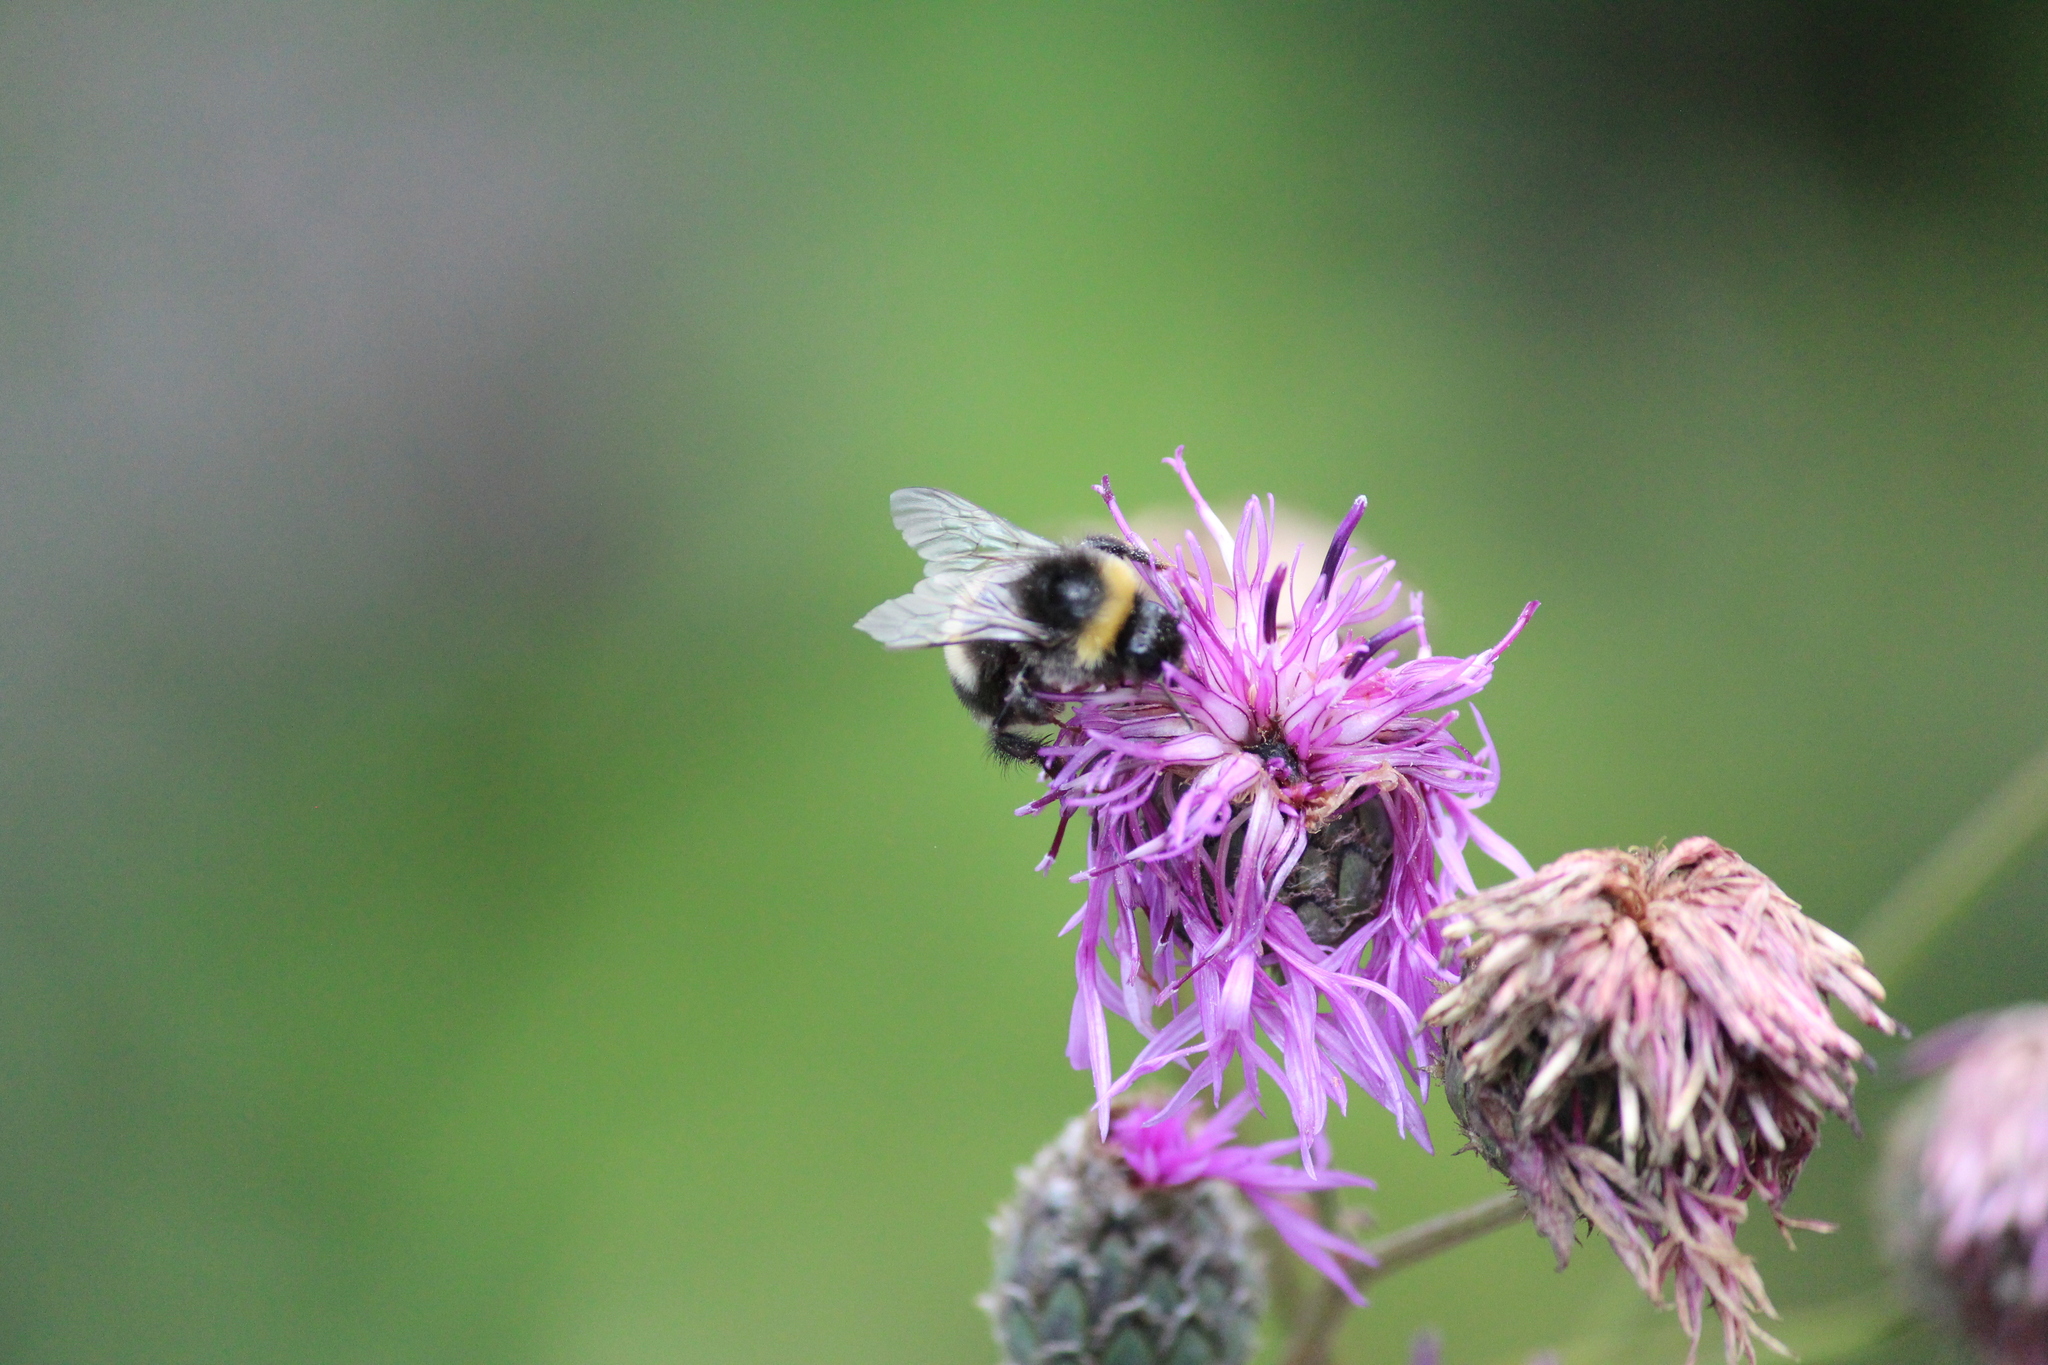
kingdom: Animalia
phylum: Arthropoda
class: Insecta
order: Hymenoptera
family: Apidae
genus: Bombus
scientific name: Bombus
